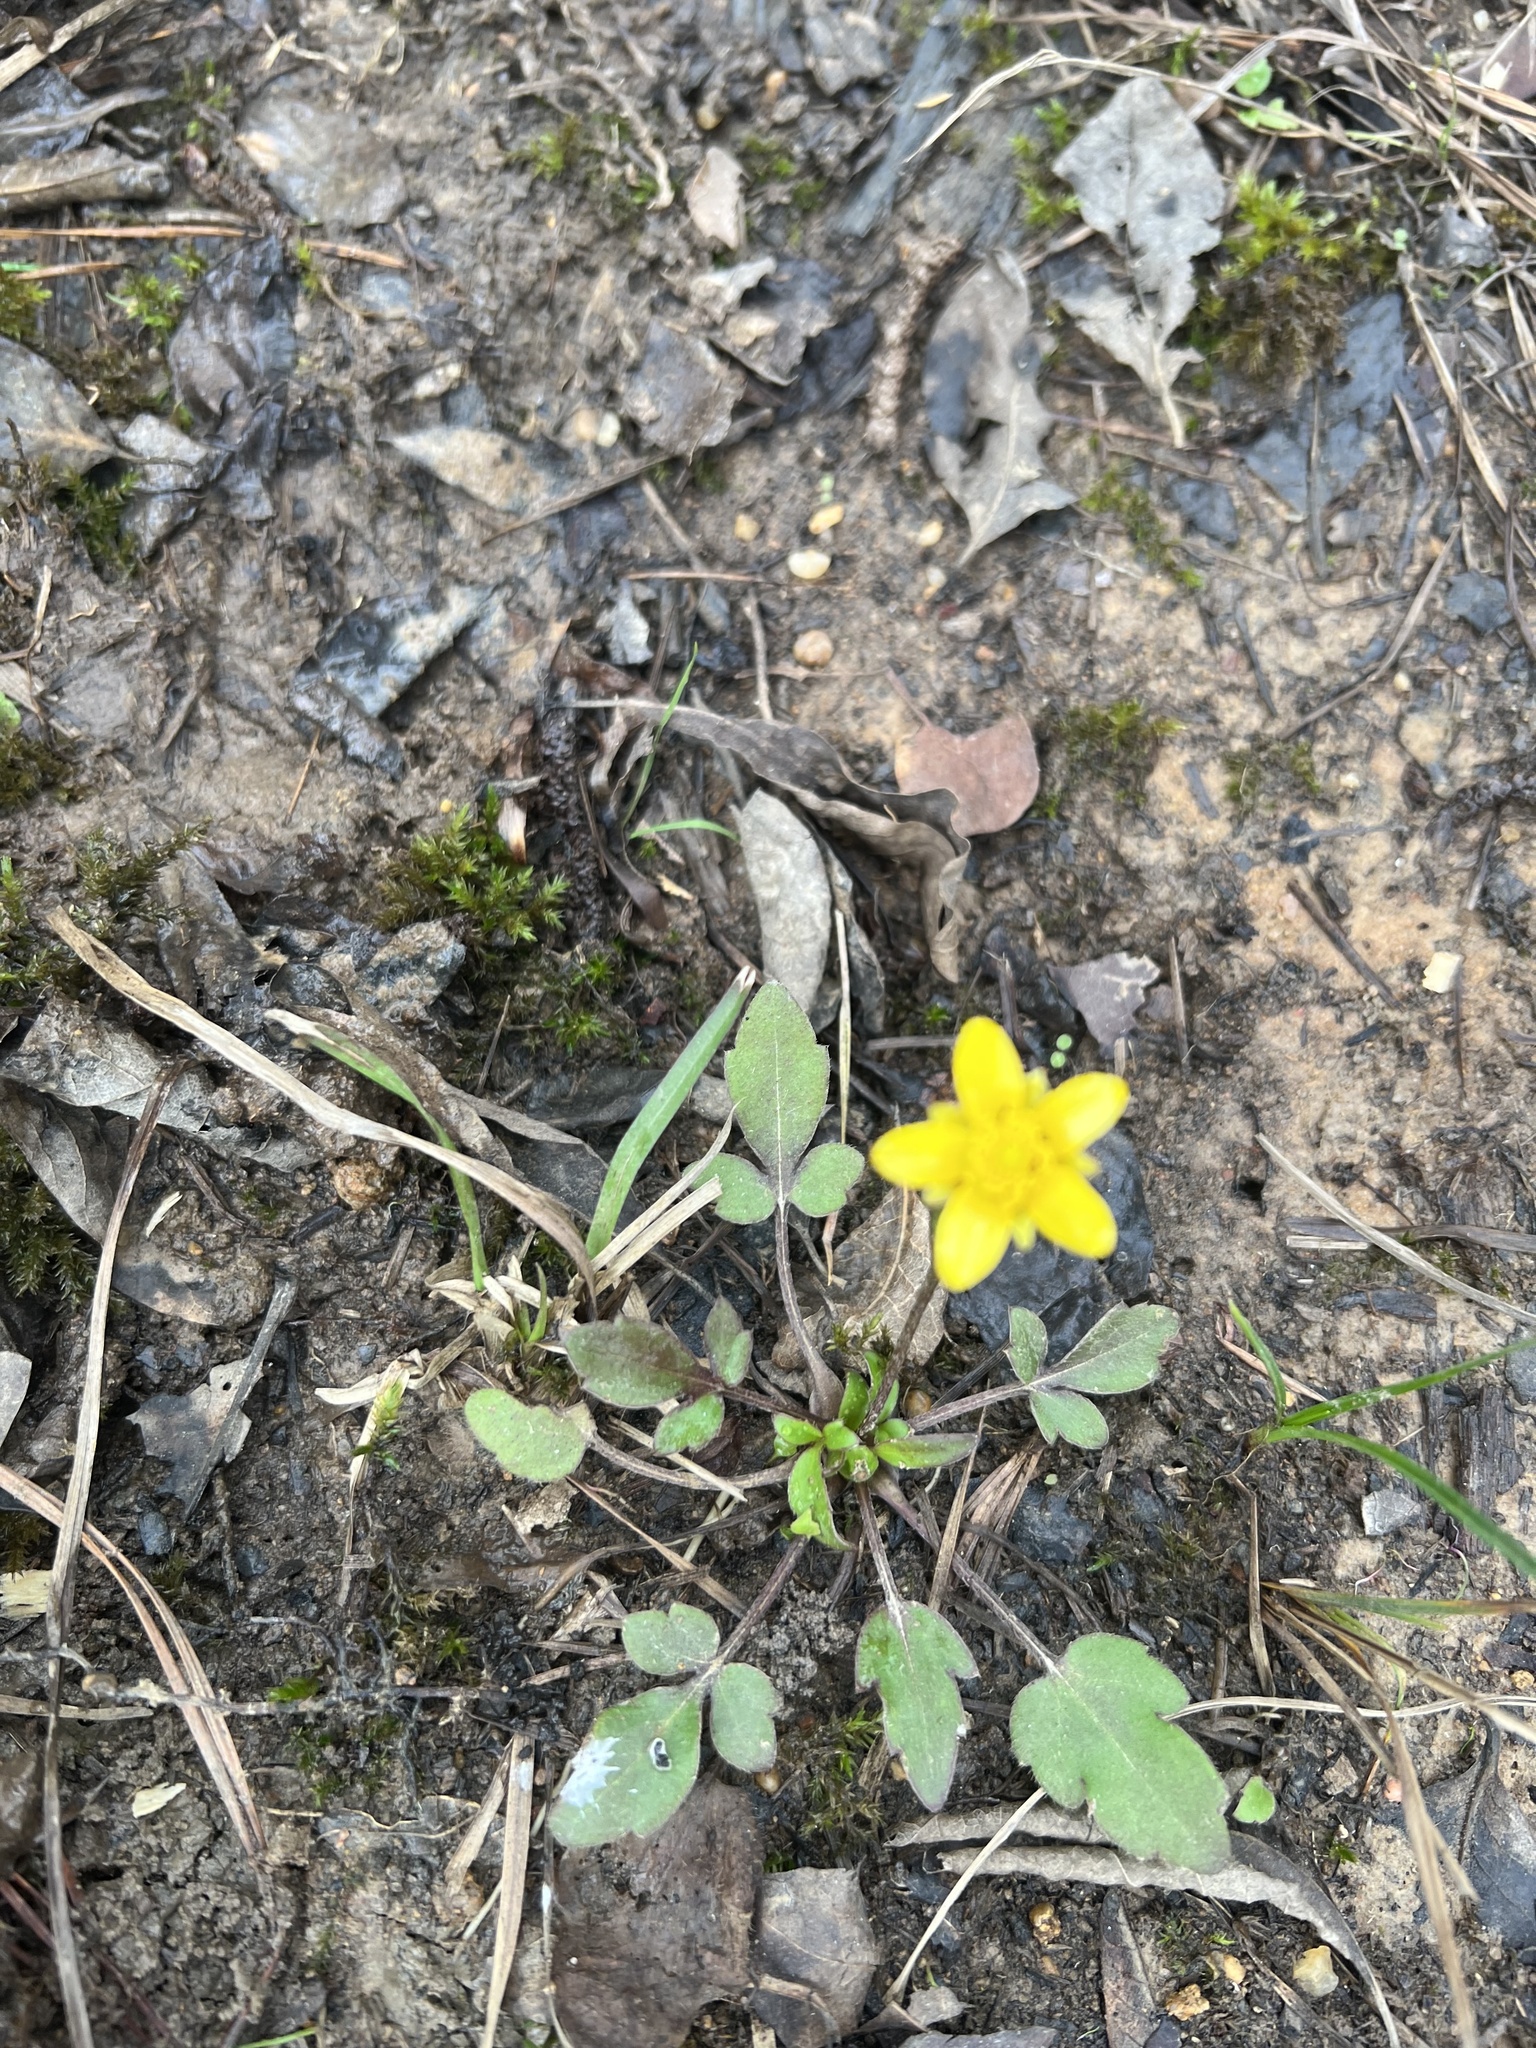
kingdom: Plantae
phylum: Tracheophyta
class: Magnoliopsida
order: Ranunculales
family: Ranunculaceae
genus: Ranunculus
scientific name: Ranunculus fascicularis
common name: Early buttercup
